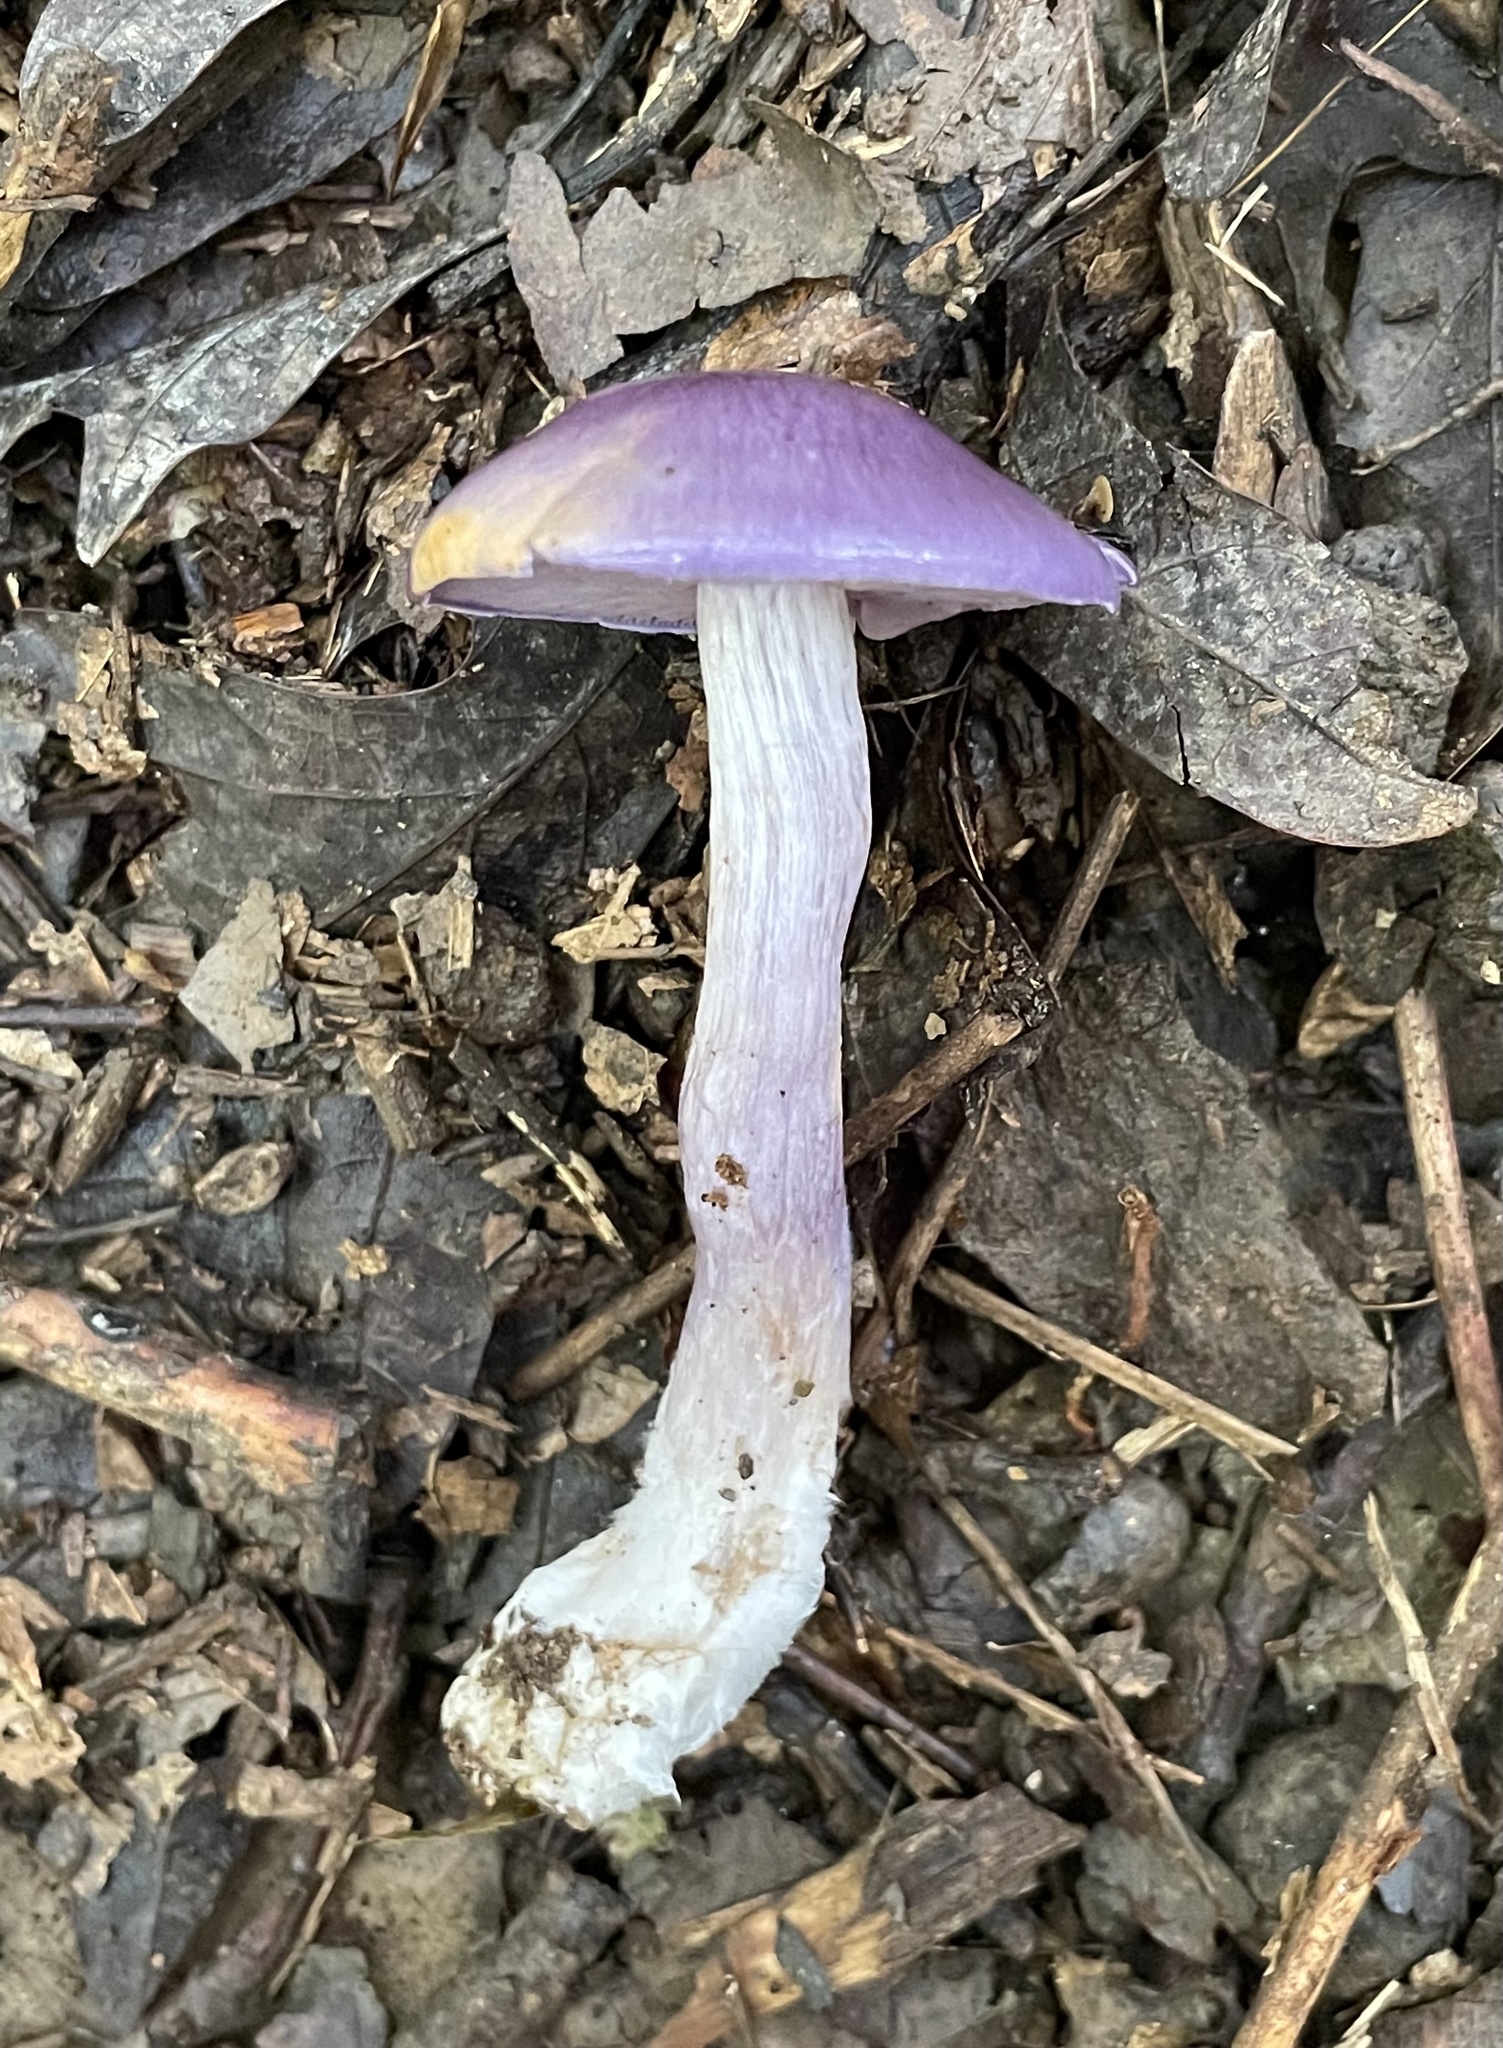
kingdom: Fungi
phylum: Basidiomycota
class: Agaricomycetes
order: Agaricales
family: Cortinariaceae
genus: Cortinarius
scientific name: Cortinarius iodes
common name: Viscid violet cort
